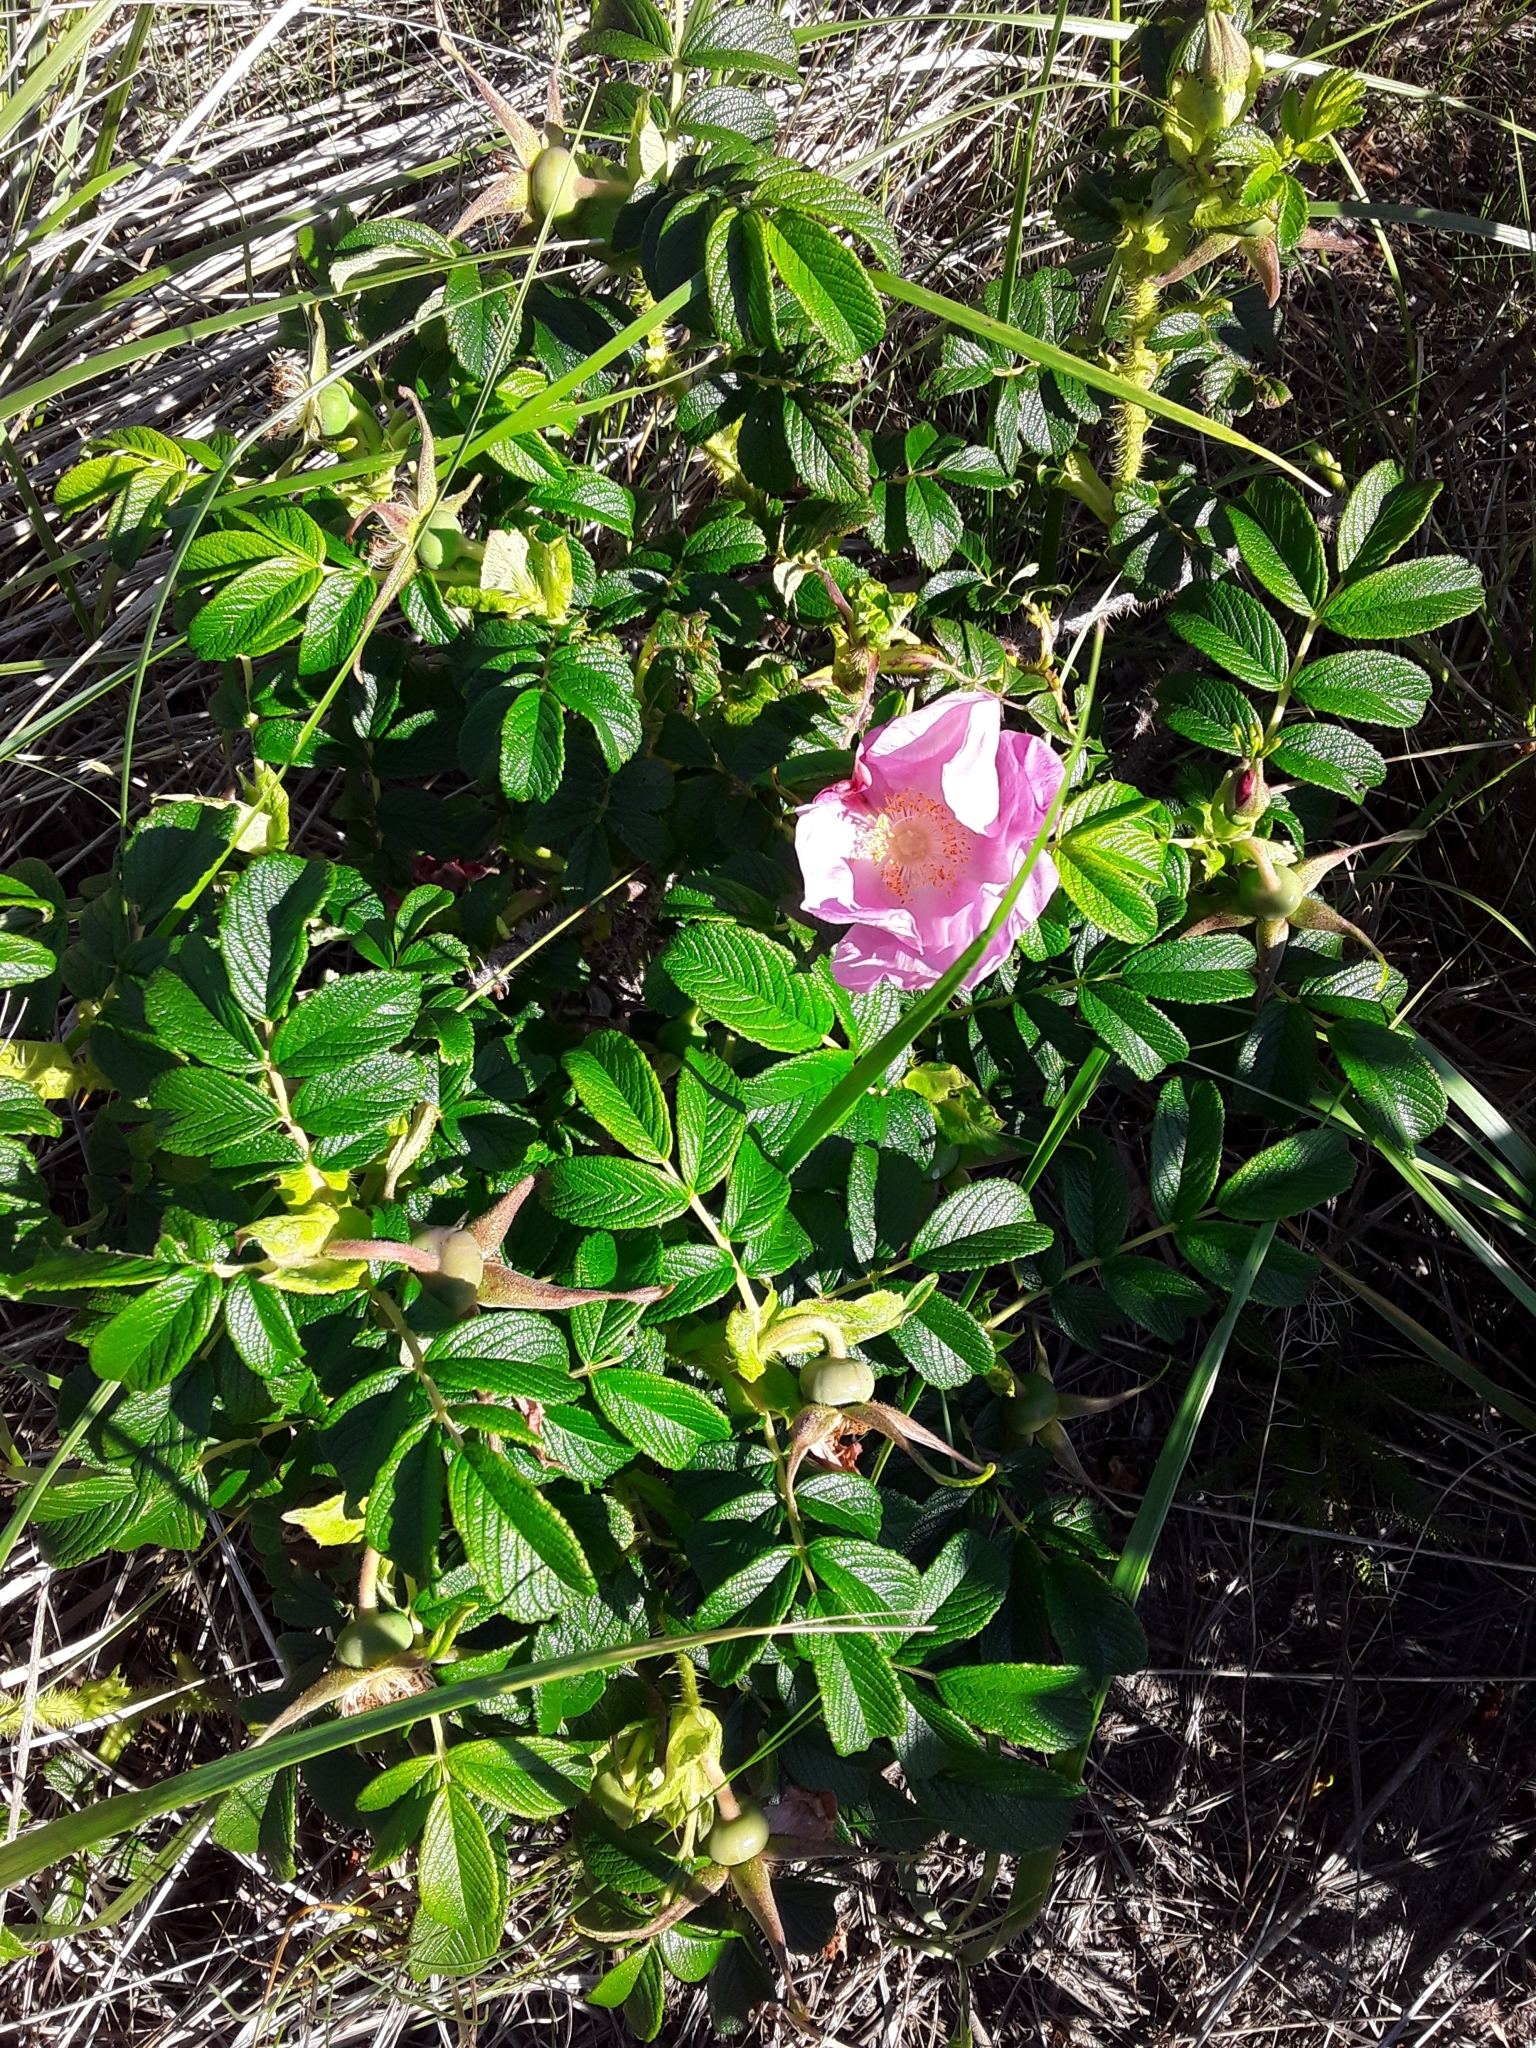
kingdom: Plantae
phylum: Tracheophyta
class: Magnoliopsida
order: Rosales
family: Rosaceae
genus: Rosa
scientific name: Rosa rugosa
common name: Japanese rose
